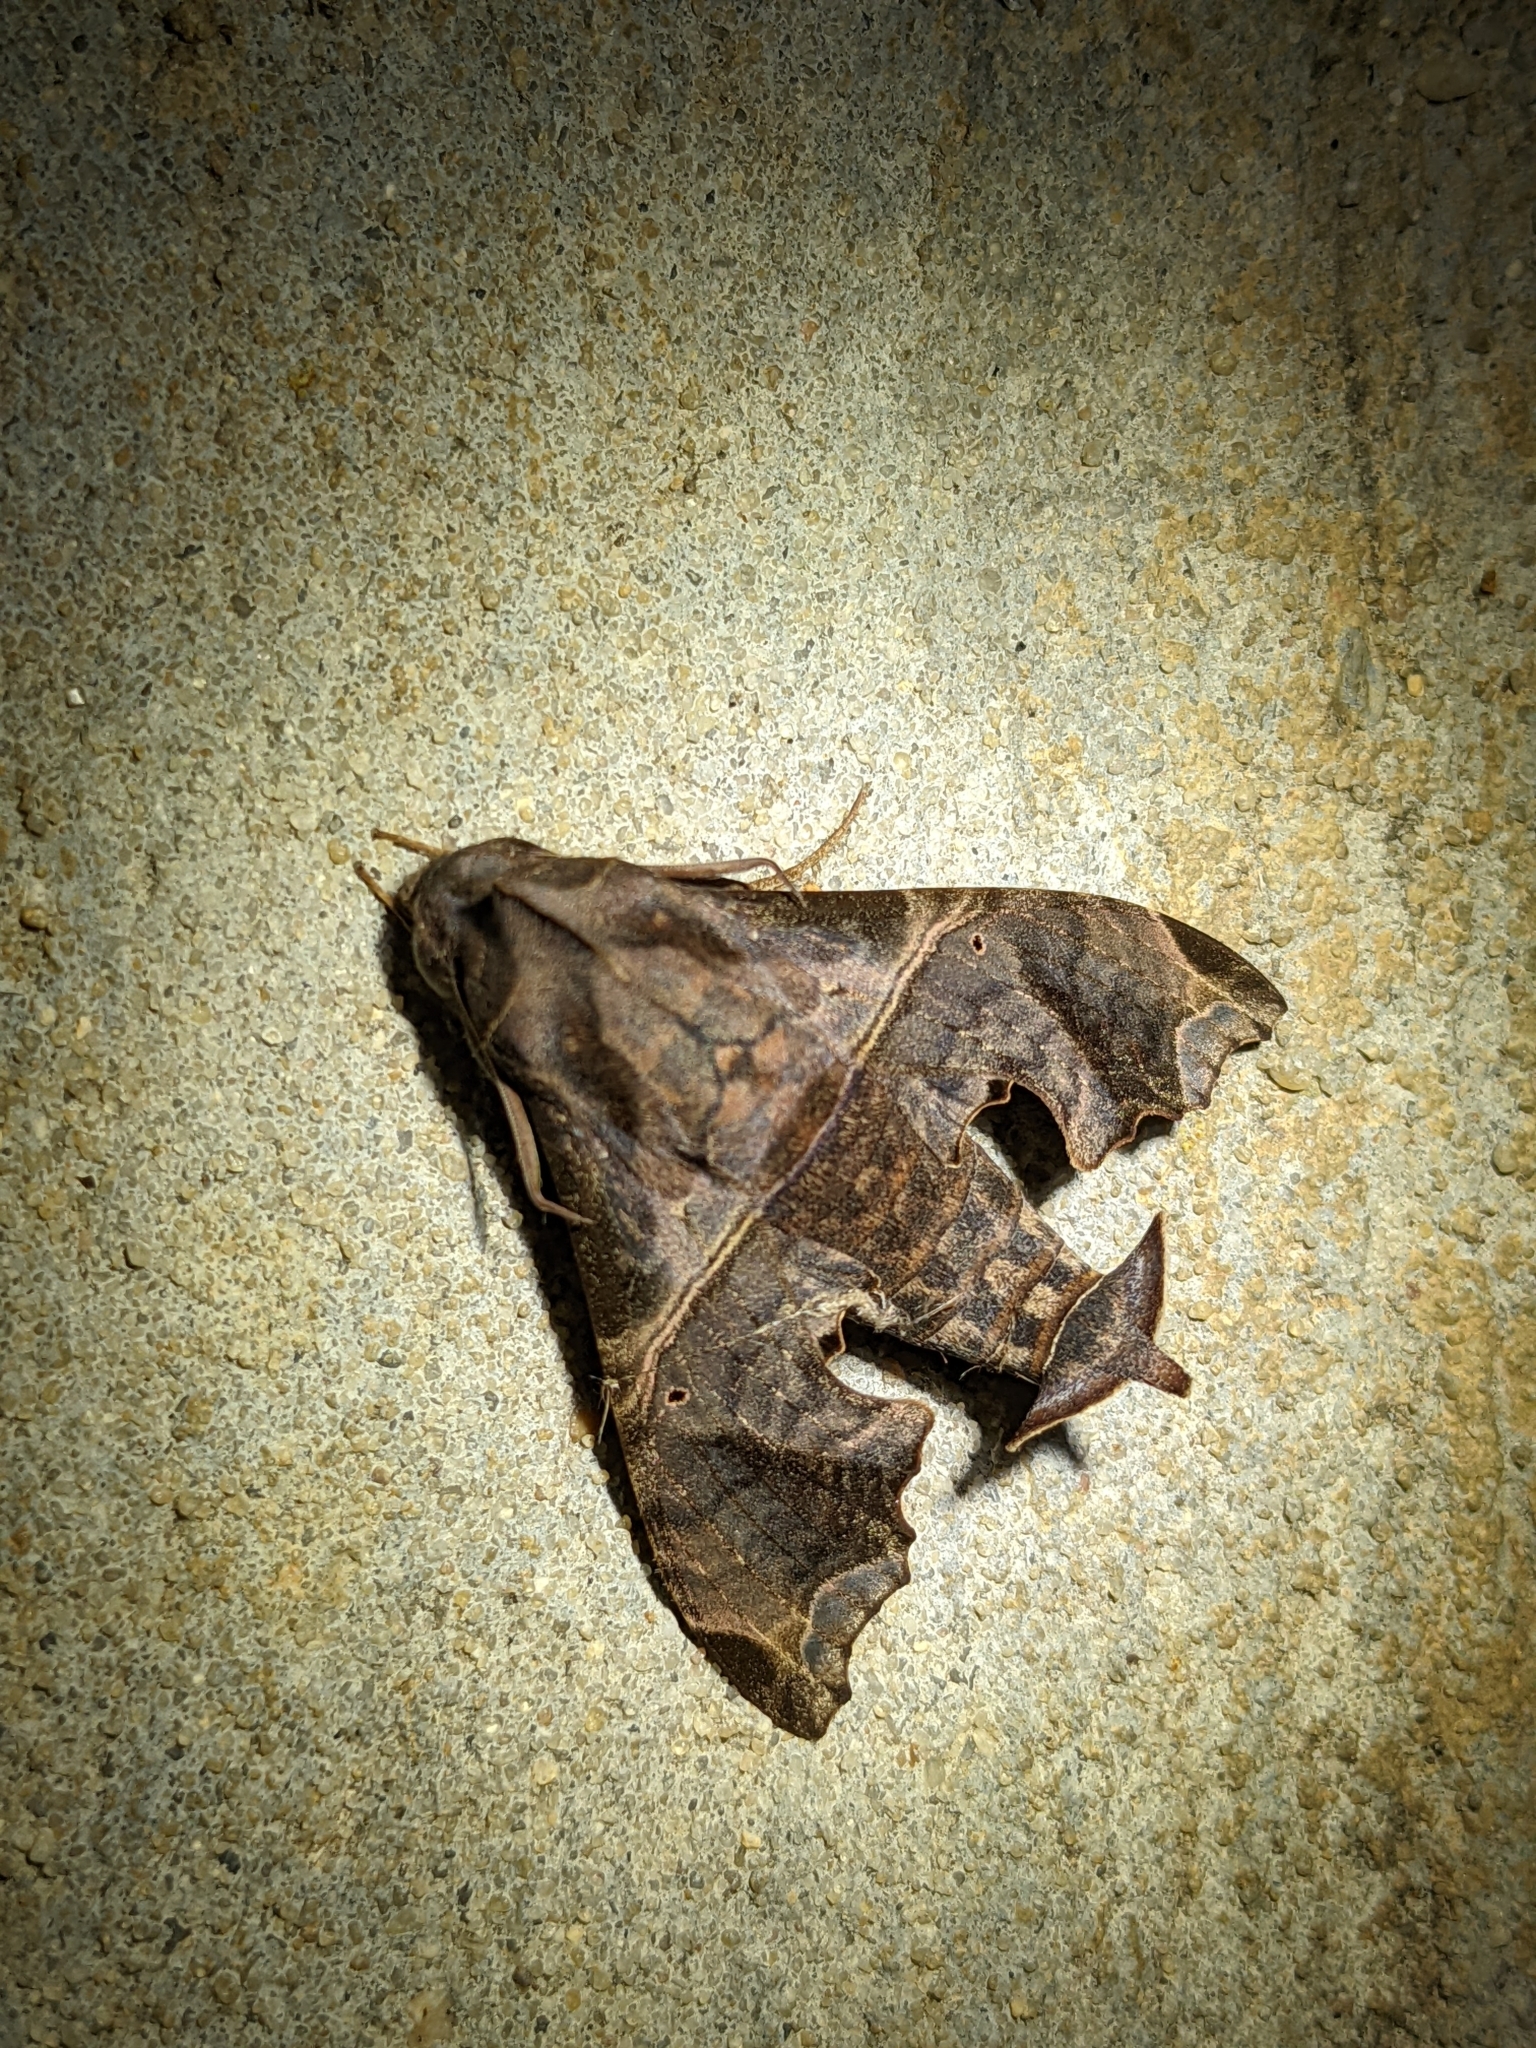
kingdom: Animalia
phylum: Arthropoda
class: Insecta
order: Lepidoptera
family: Sphingidae
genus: Enyo
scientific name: Enyo lugubris
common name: Mournful sphinx
